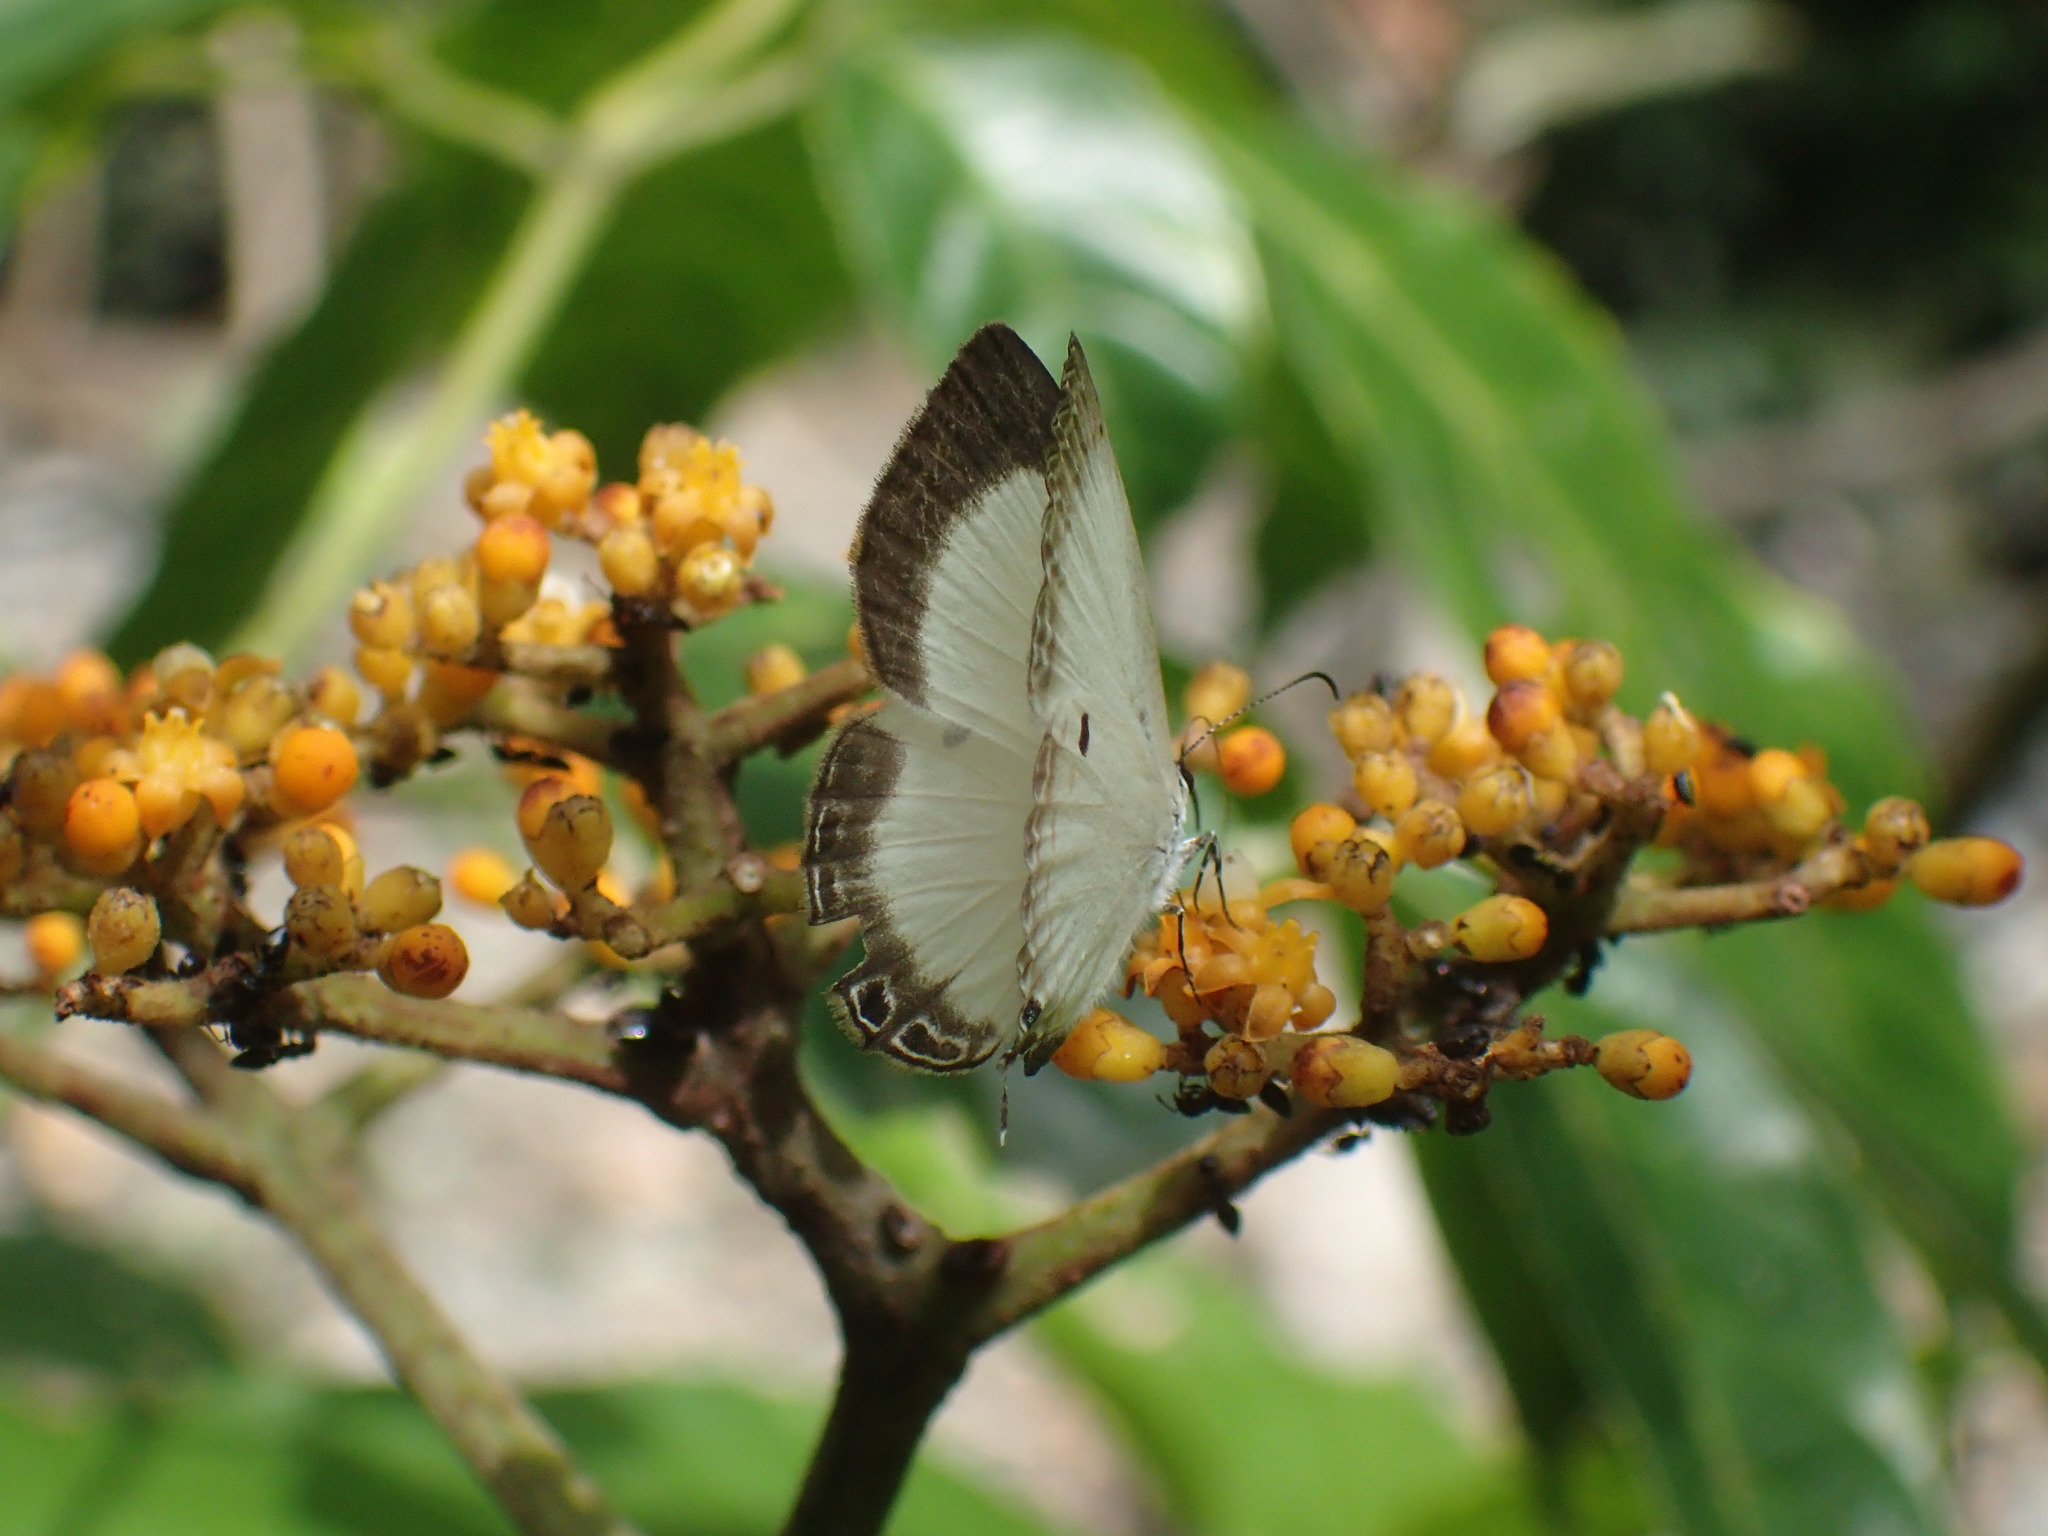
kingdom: Animalia
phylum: Arthropoda
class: Insecta
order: Lepidoptera
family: Lycaenidae
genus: Oboronia
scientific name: Oboronia punctatus
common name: Common ginger white
